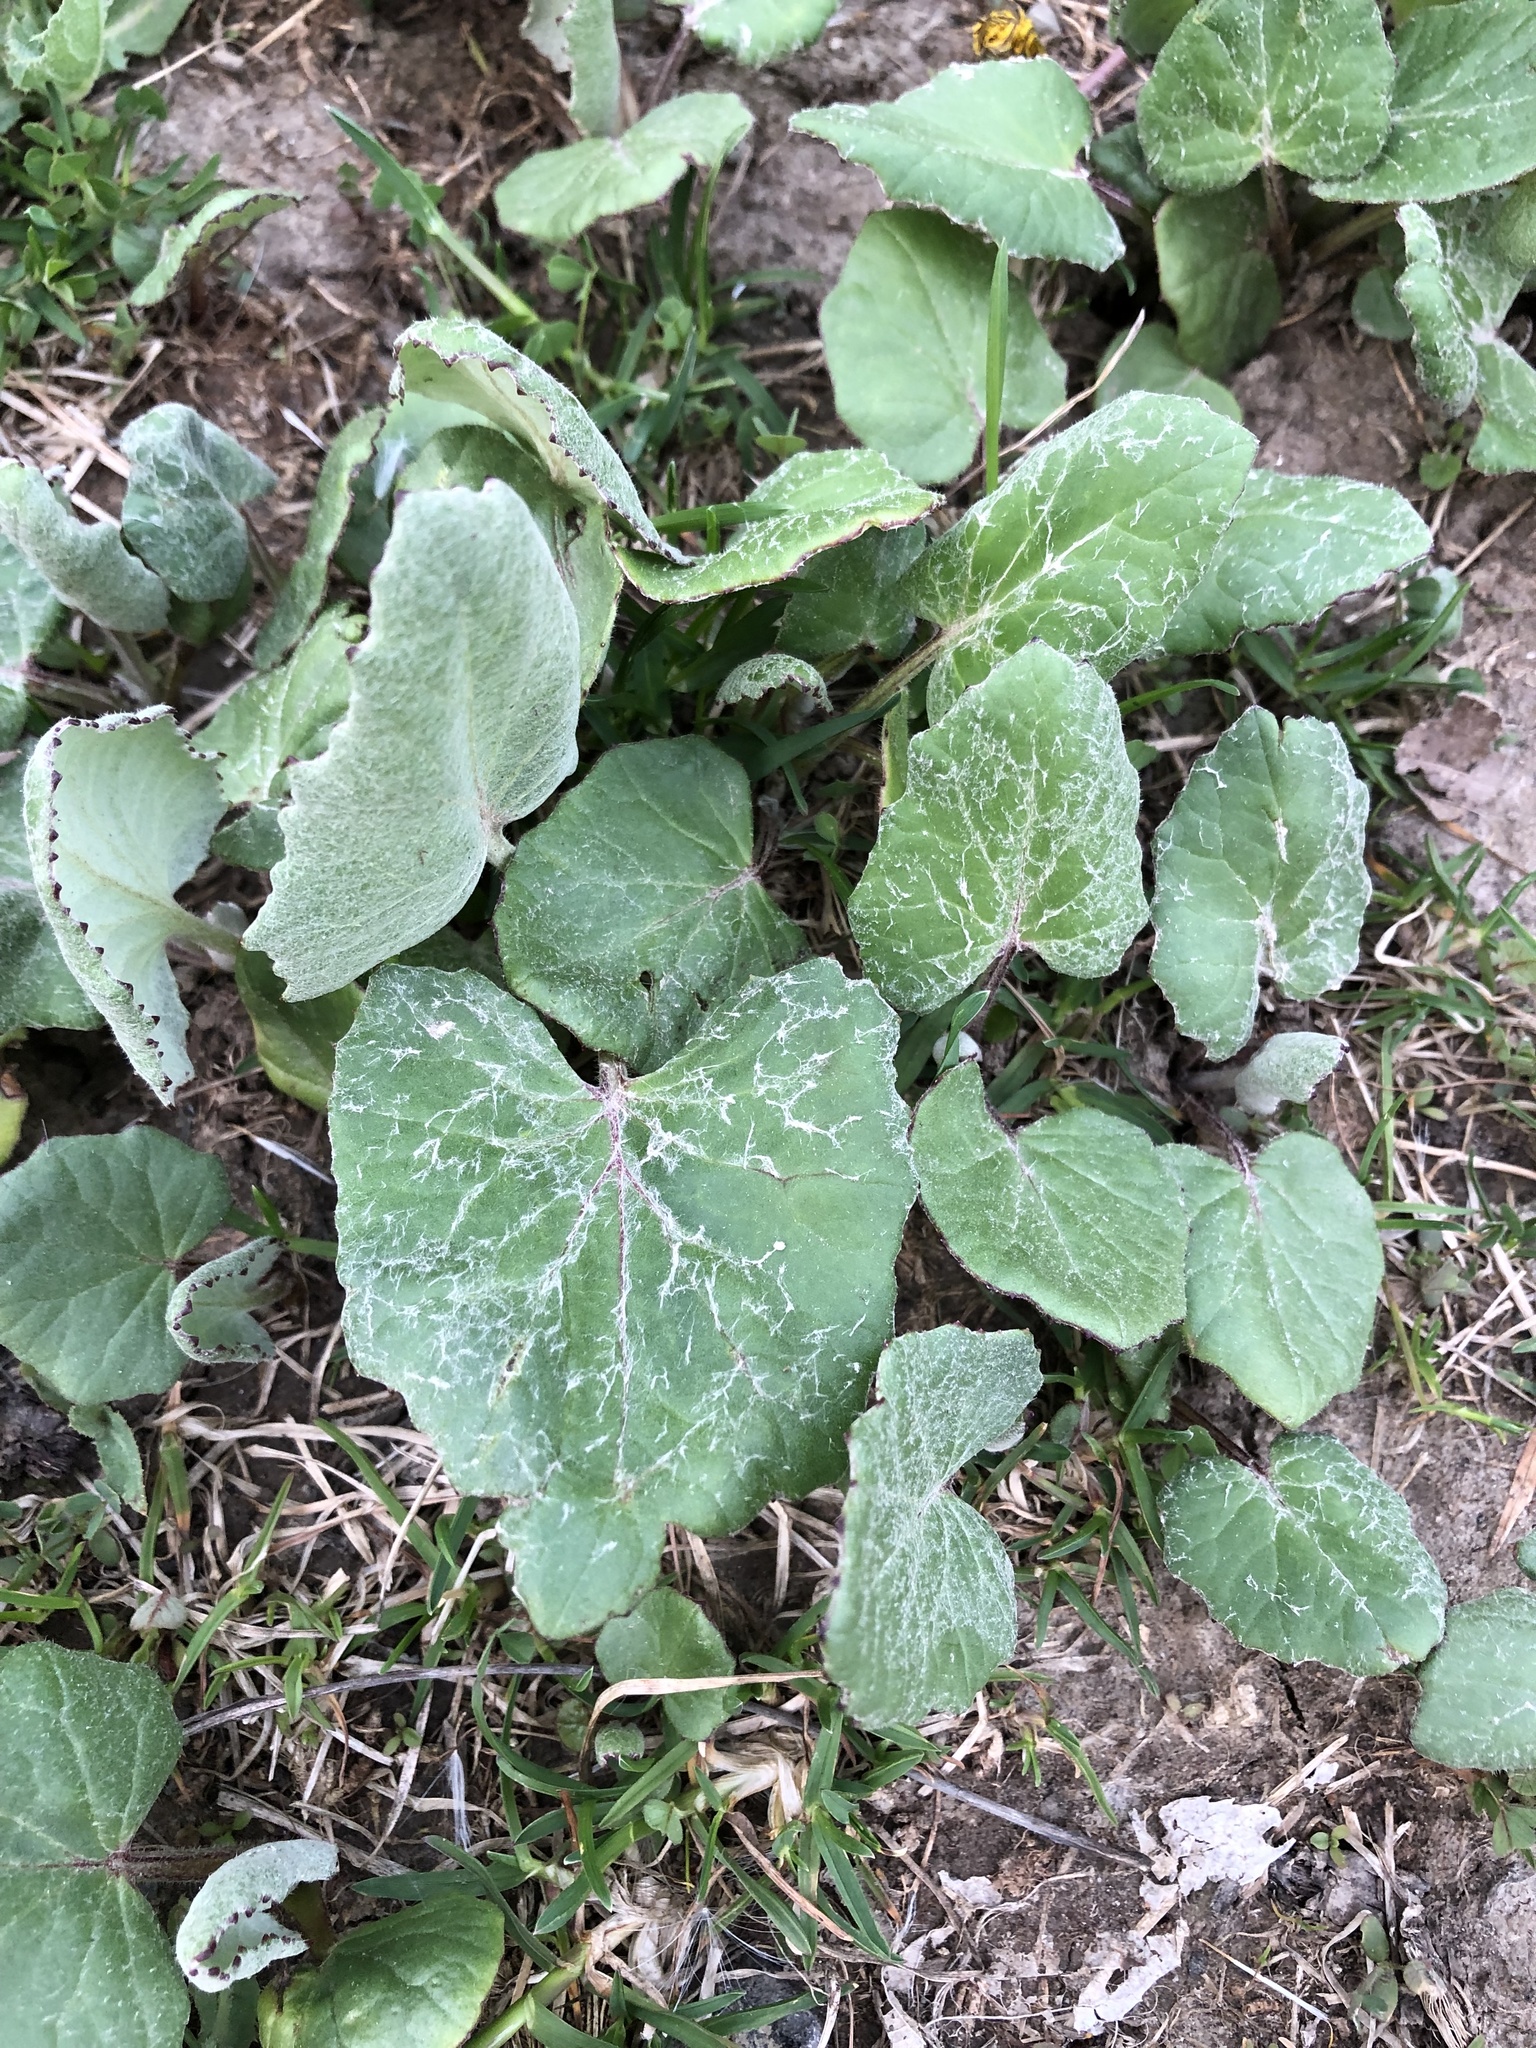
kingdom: Plantae
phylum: Tracheophyta
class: Magnoliopsida
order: Asterales
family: Asteraceae
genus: Tussilago
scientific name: Tussilago farfara
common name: Coltsfoot
